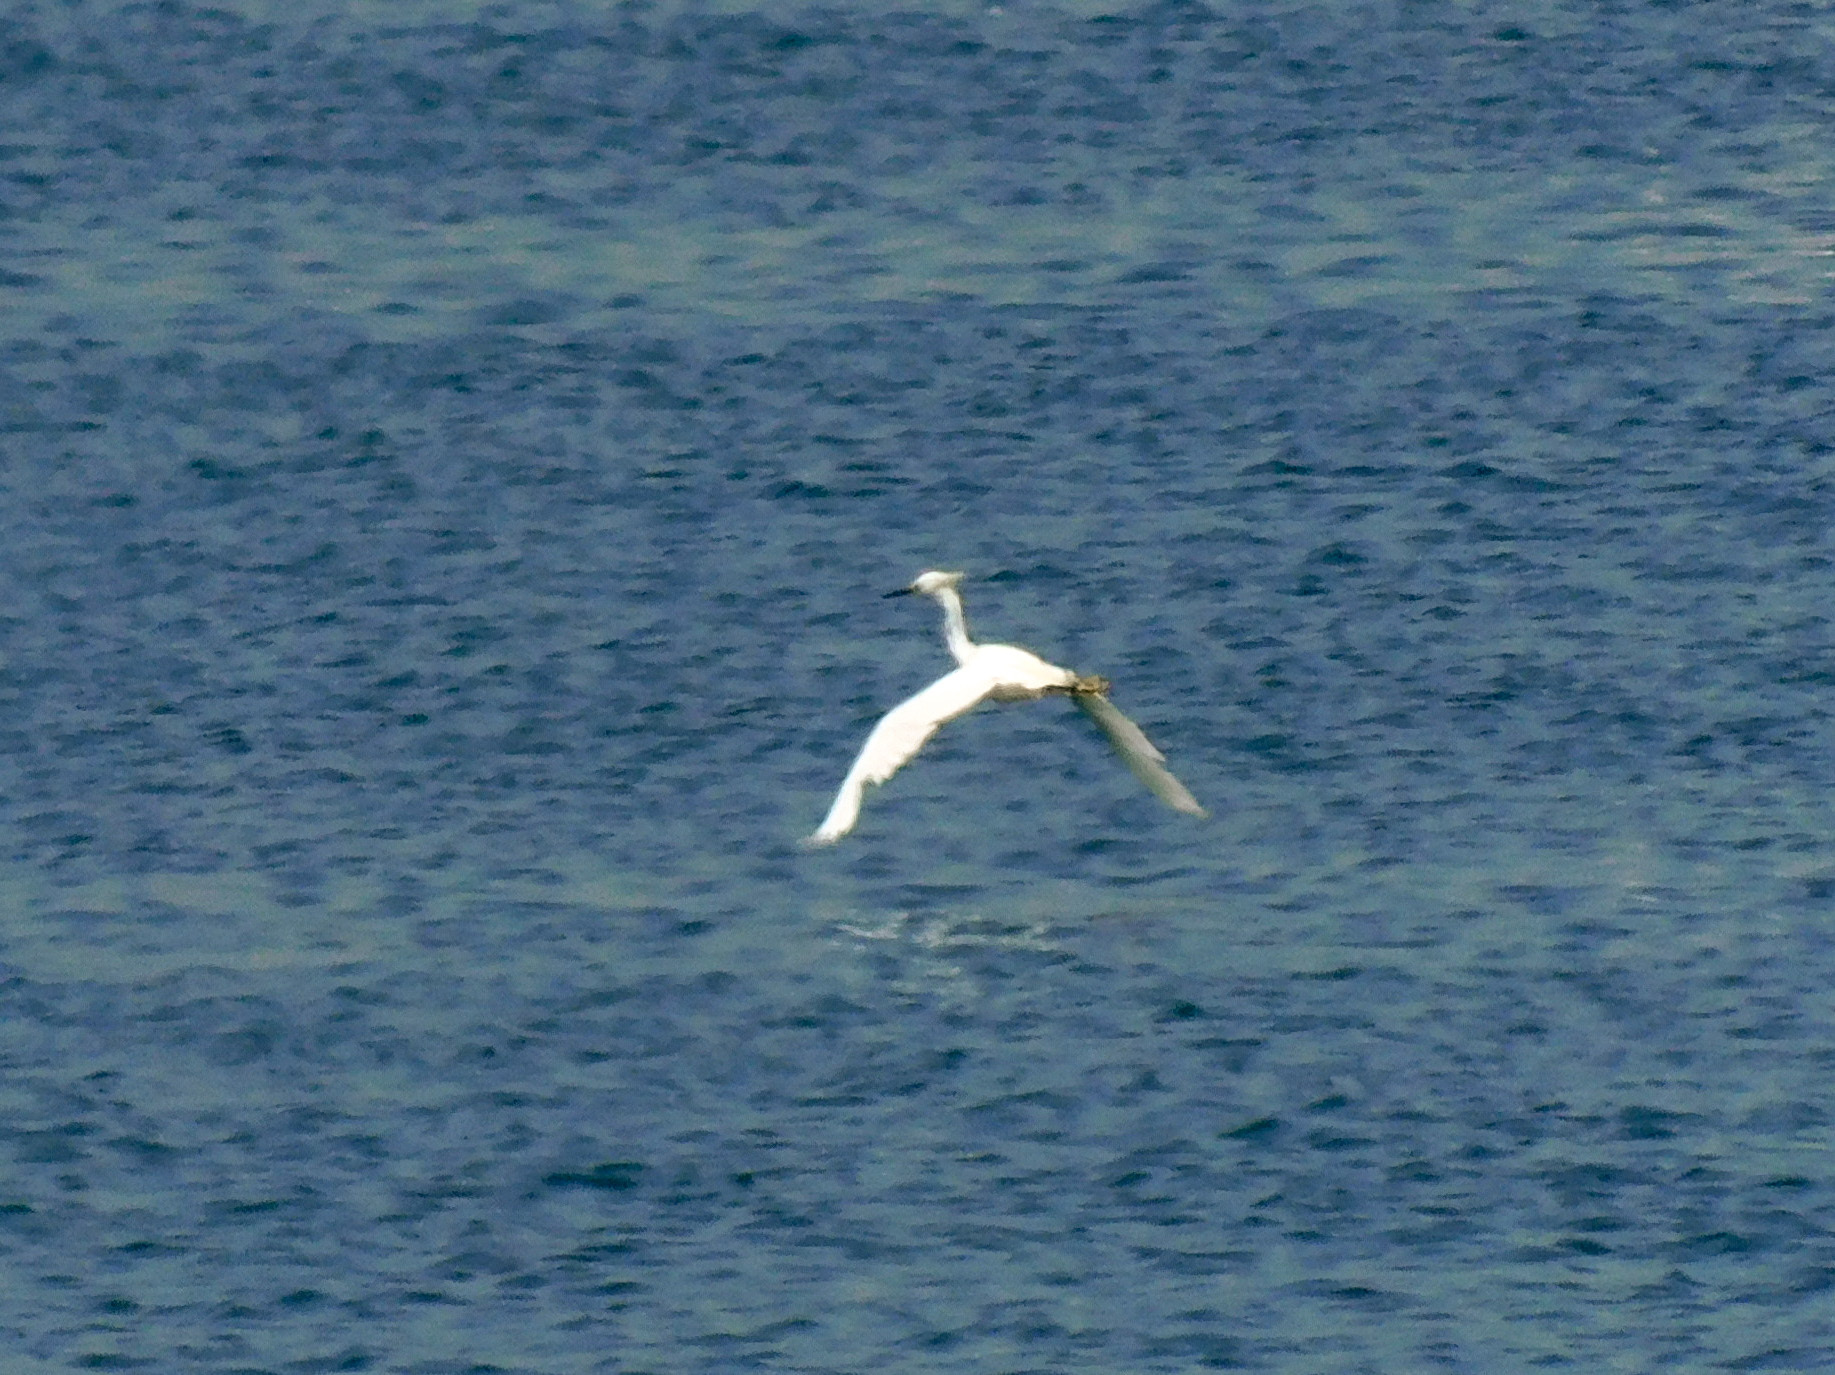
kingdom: Animalia
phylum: Chordata
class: Aves
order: Pelecaniformes
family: Ardeidae
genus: Egretta
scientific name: Egretta thula
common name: Snowy egret
